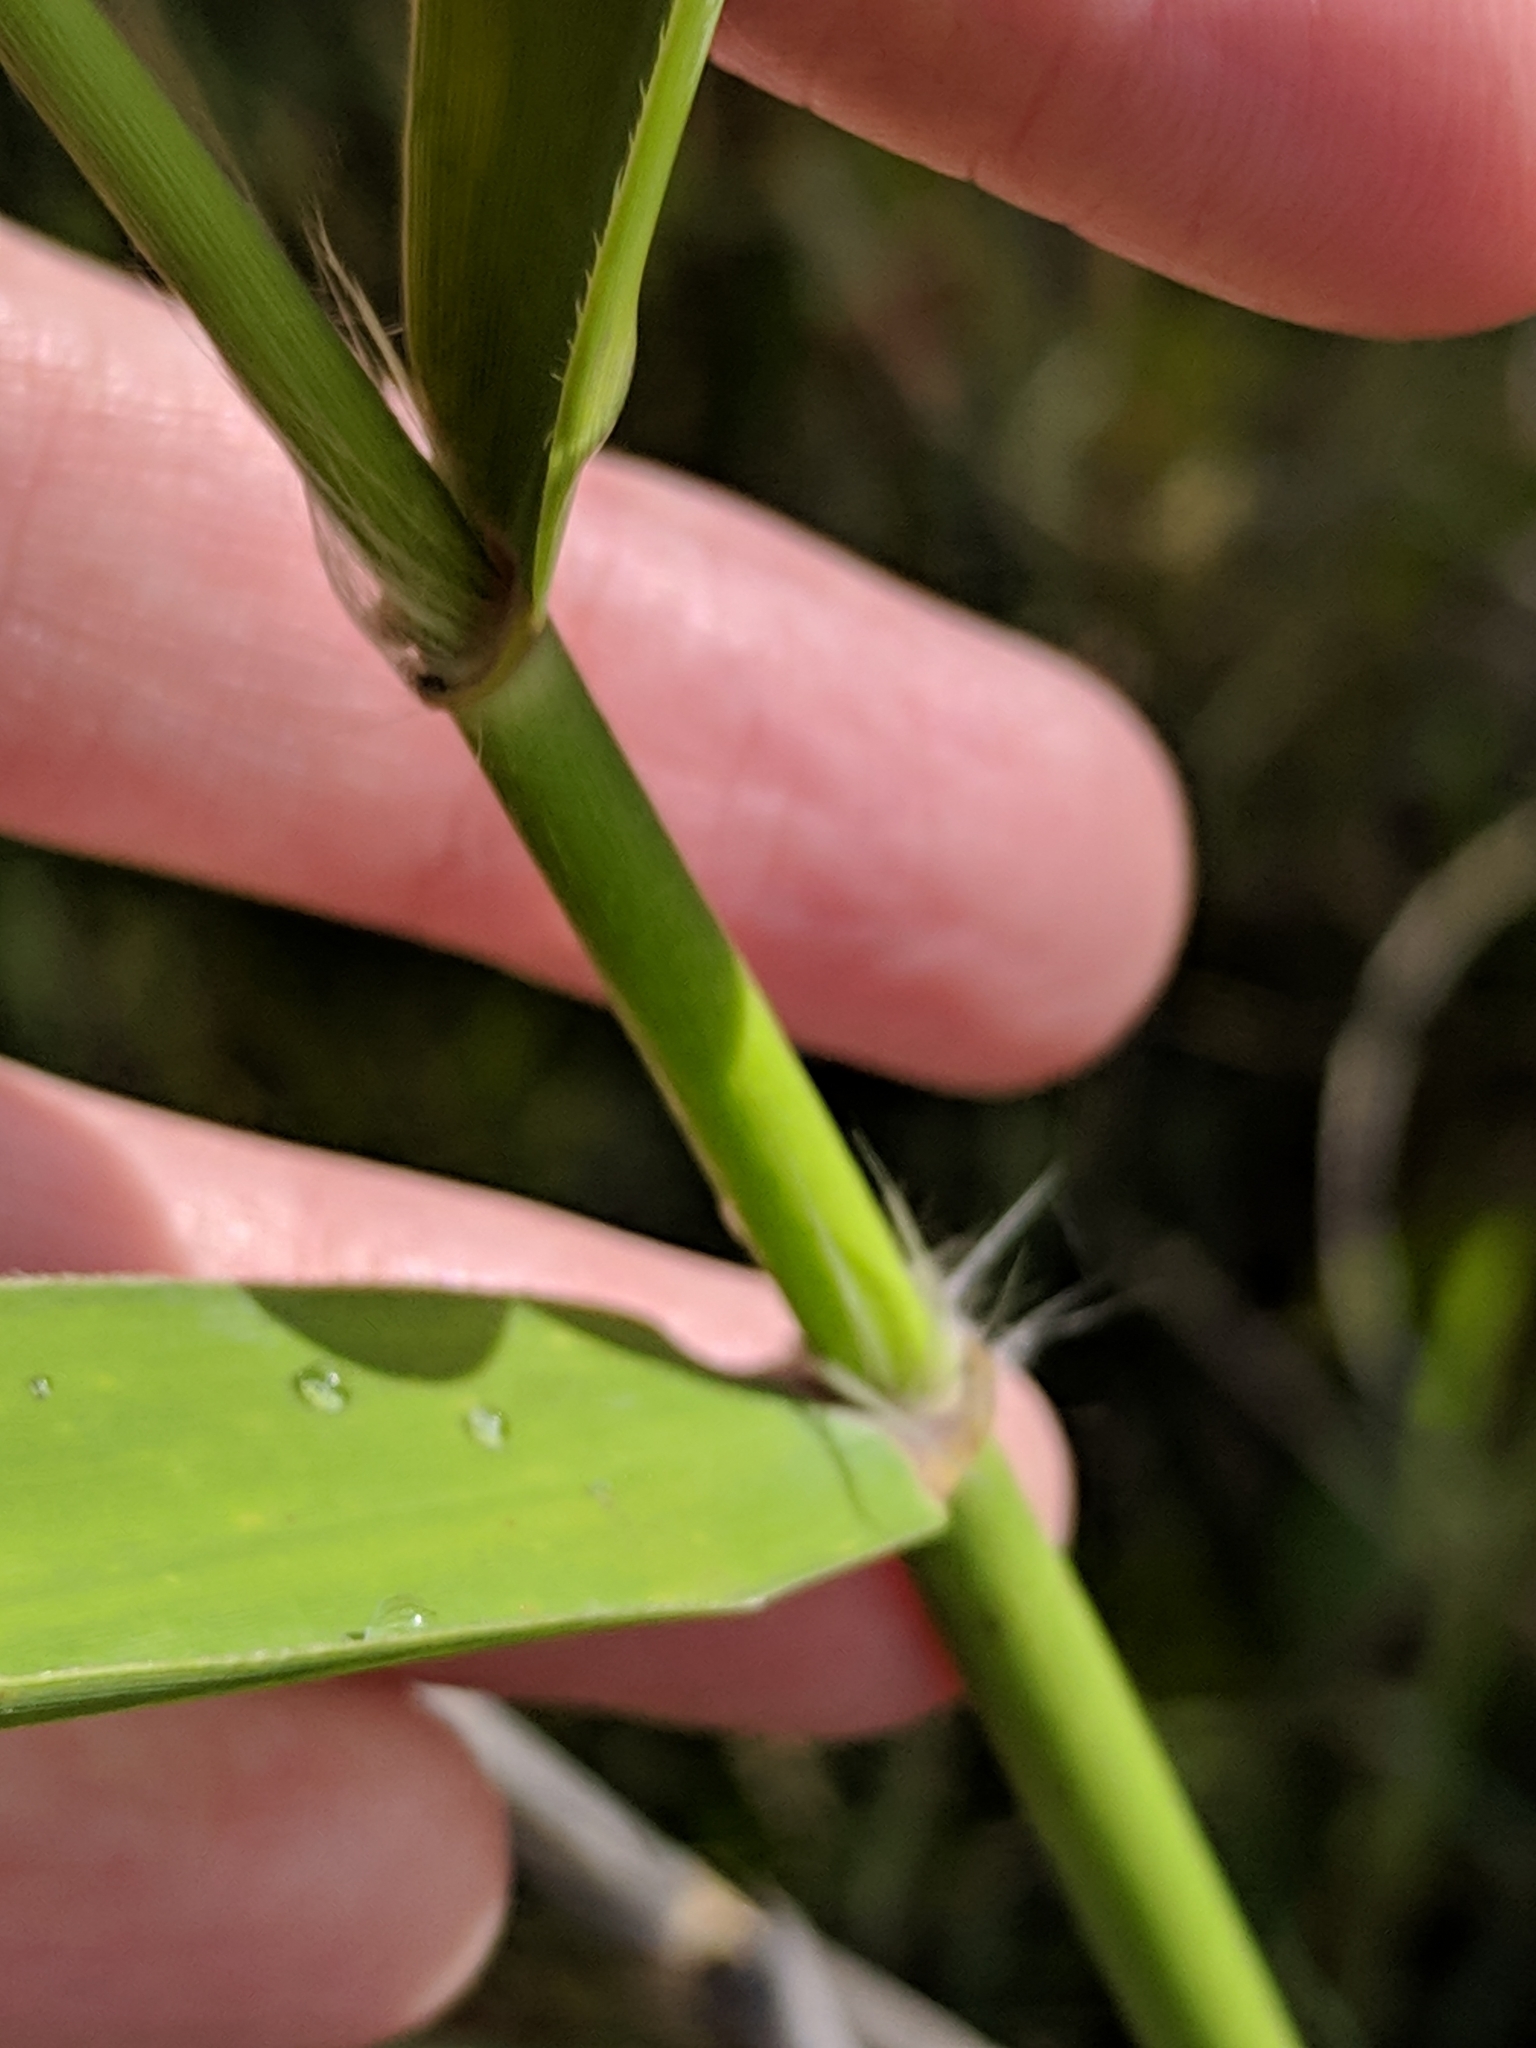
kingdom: Plantae
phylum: Tracheophyta
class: Liliopsida
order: Poales
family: Poaceae
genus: Phragmites
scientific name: Phragmites australis
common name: Common reed
